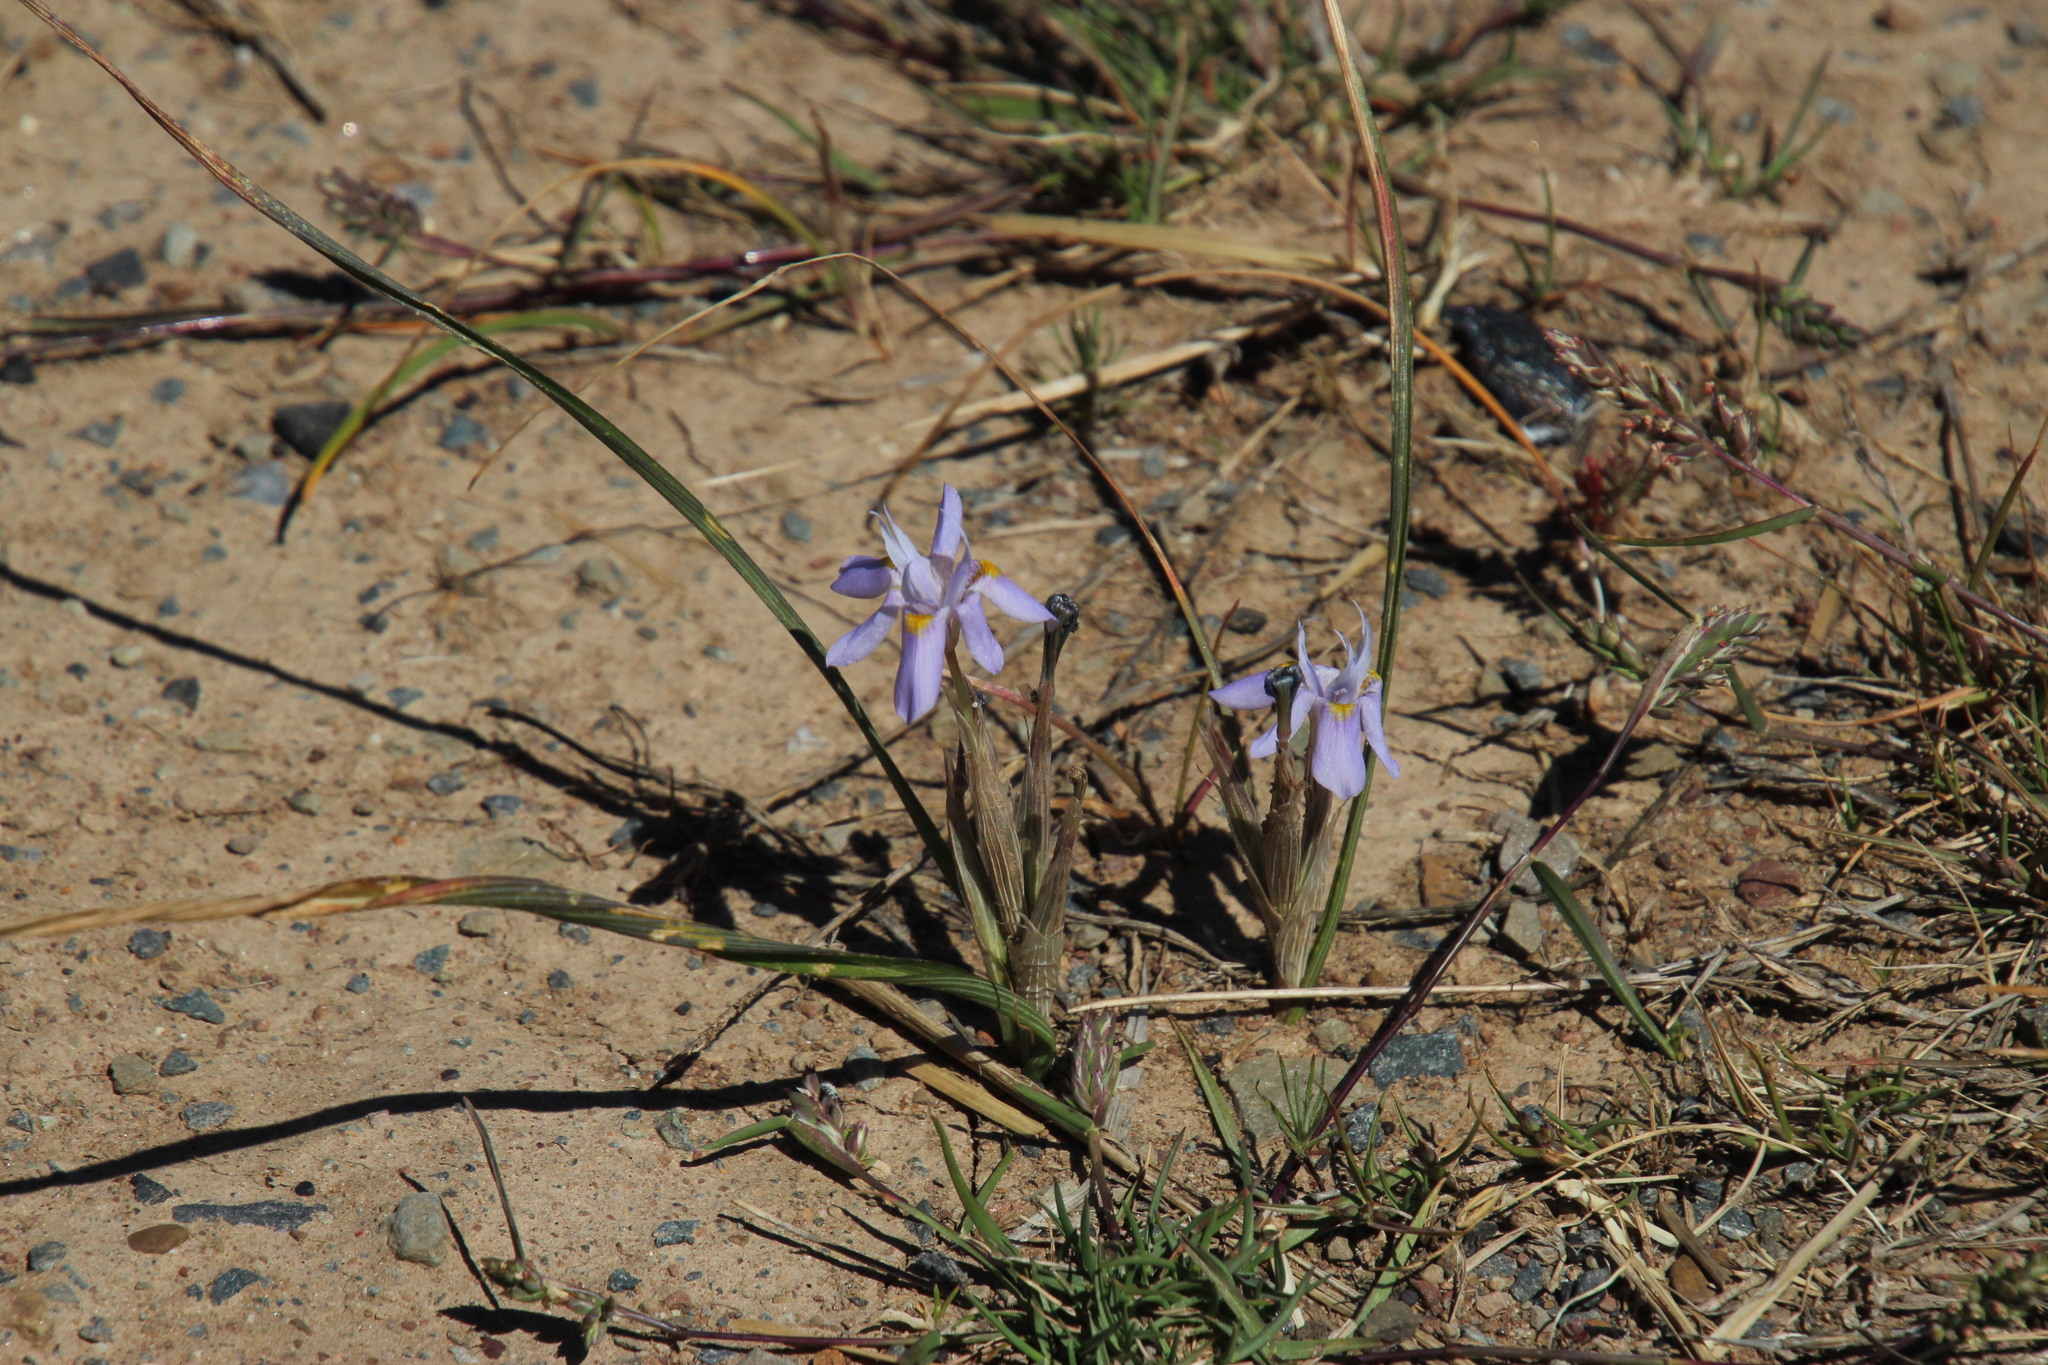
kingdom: Plantae
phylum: Tracheophyta
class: Liliopsida
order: Asparagales
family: Iridaceae
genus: Moraea
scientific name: Moraea setifolia
